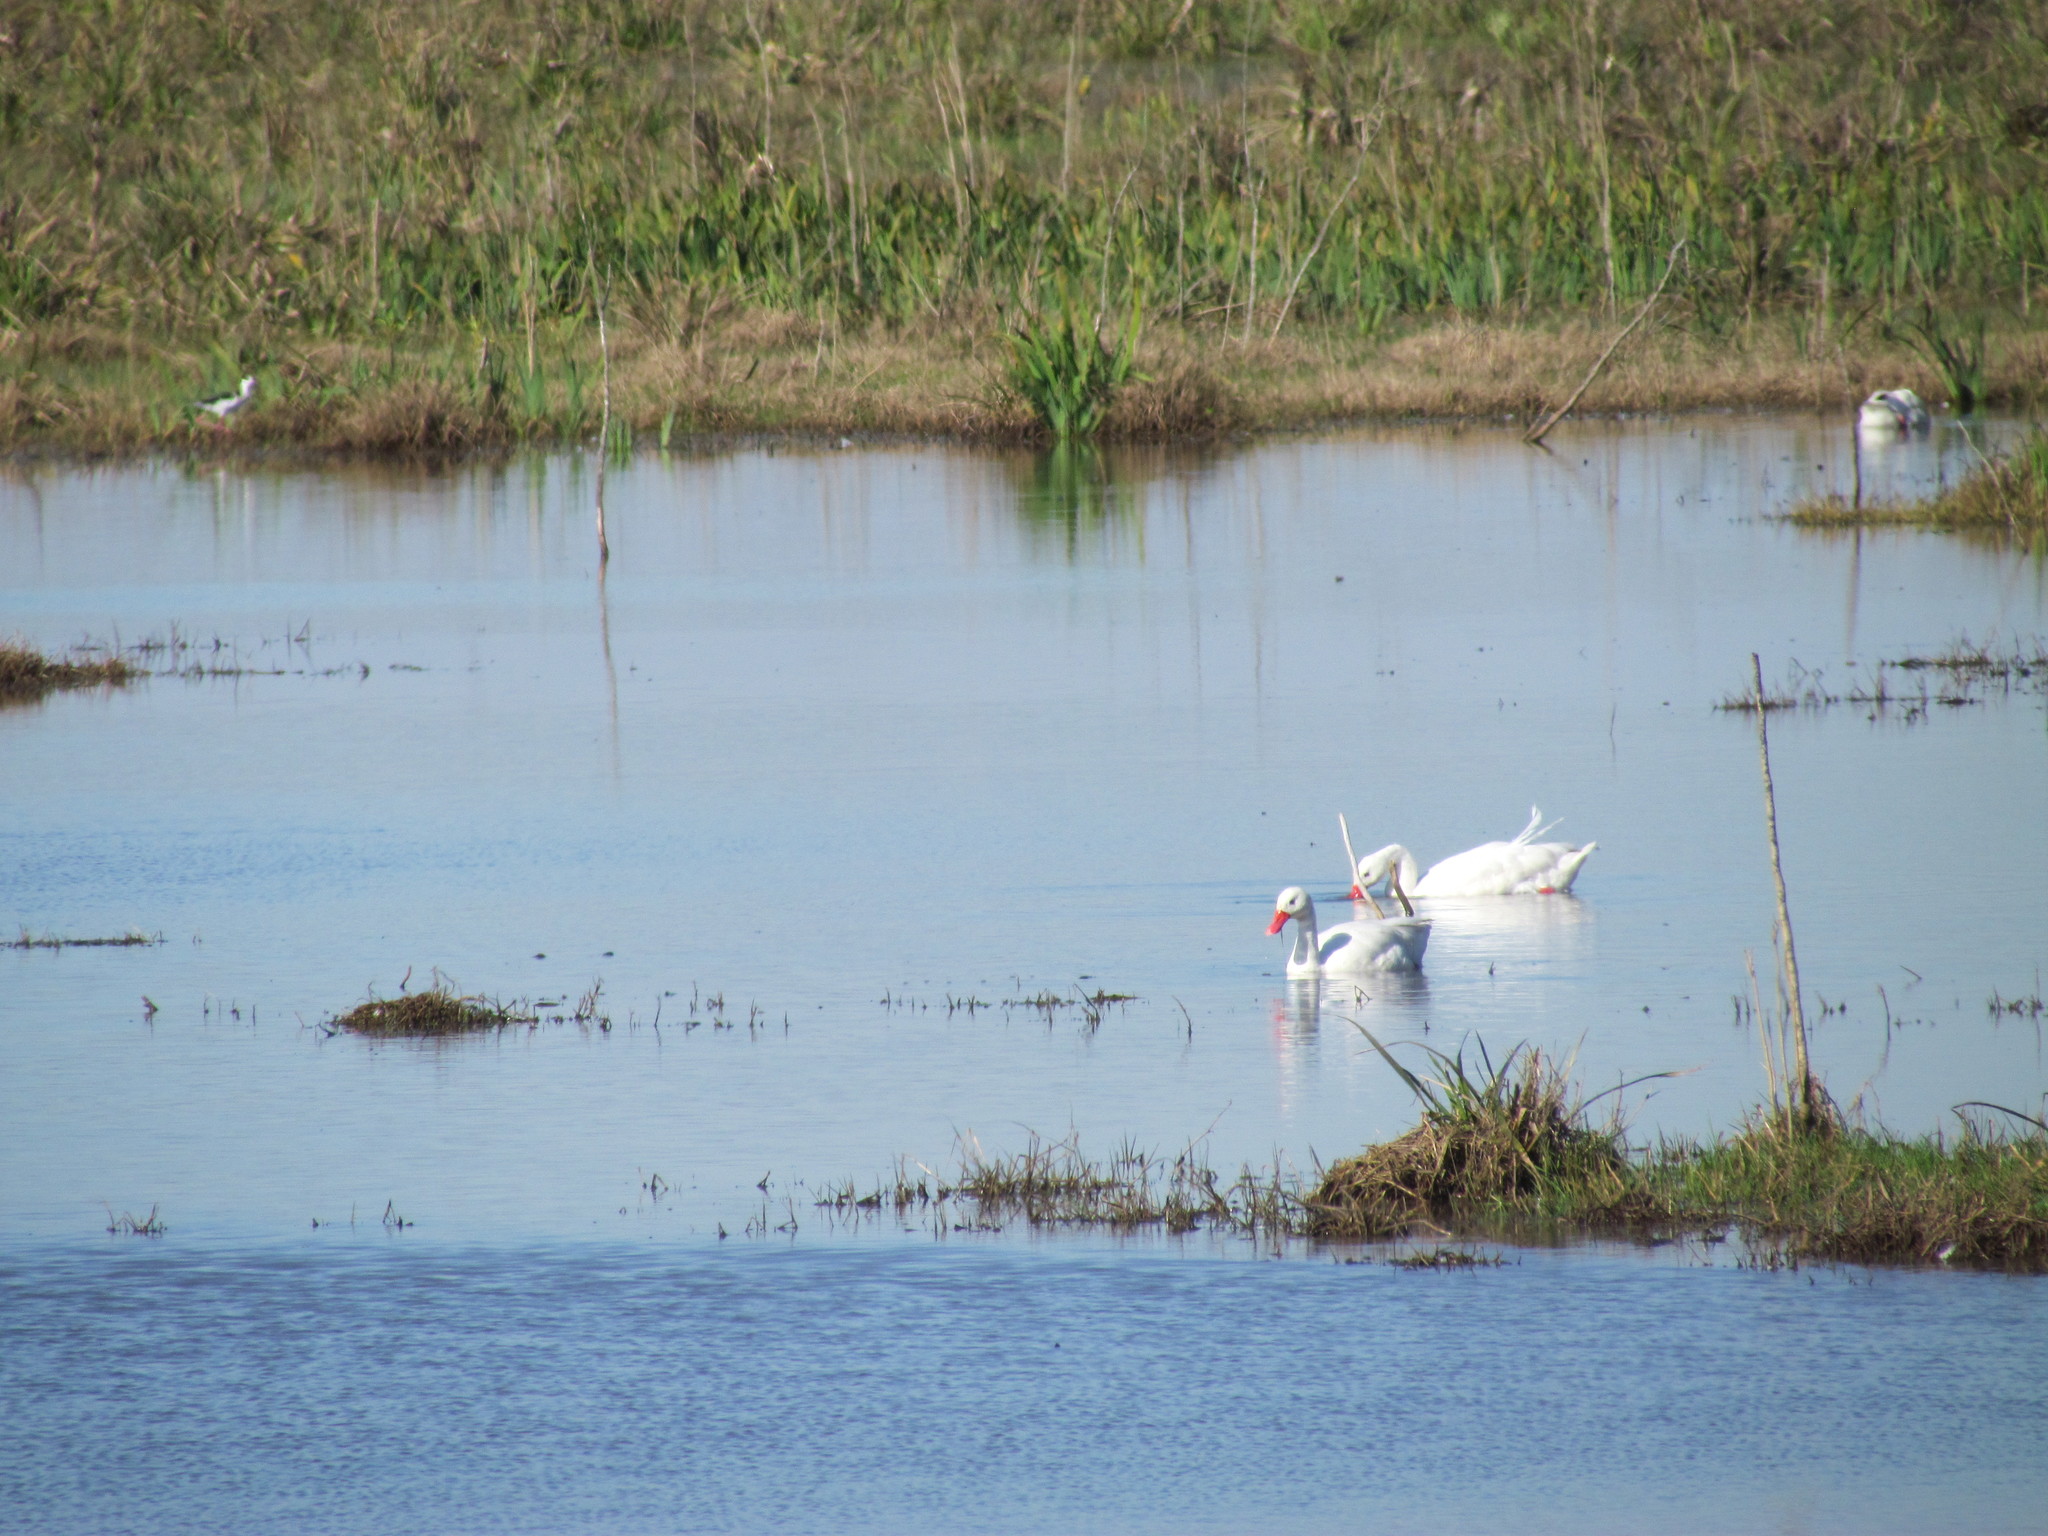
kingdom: Animalia
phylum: Chordata
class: Aves
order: Anseriformes
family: Anatidae
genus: Coscoroba
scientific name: Coscoroba coscoroba
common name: Coscoroba swan
